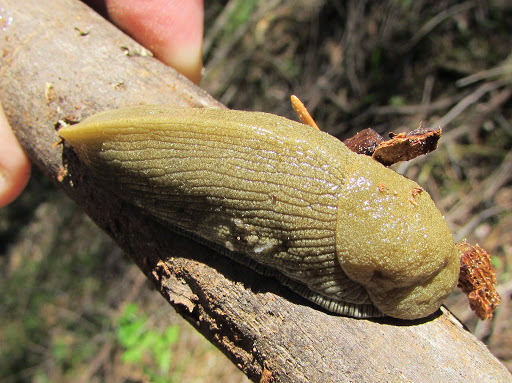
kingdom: Animalia
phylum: Mollusca
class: Gastropoda
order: Stylommatophora
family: Ariolimacidae
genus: Ariolimax
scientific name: Ariolimax buttoni
